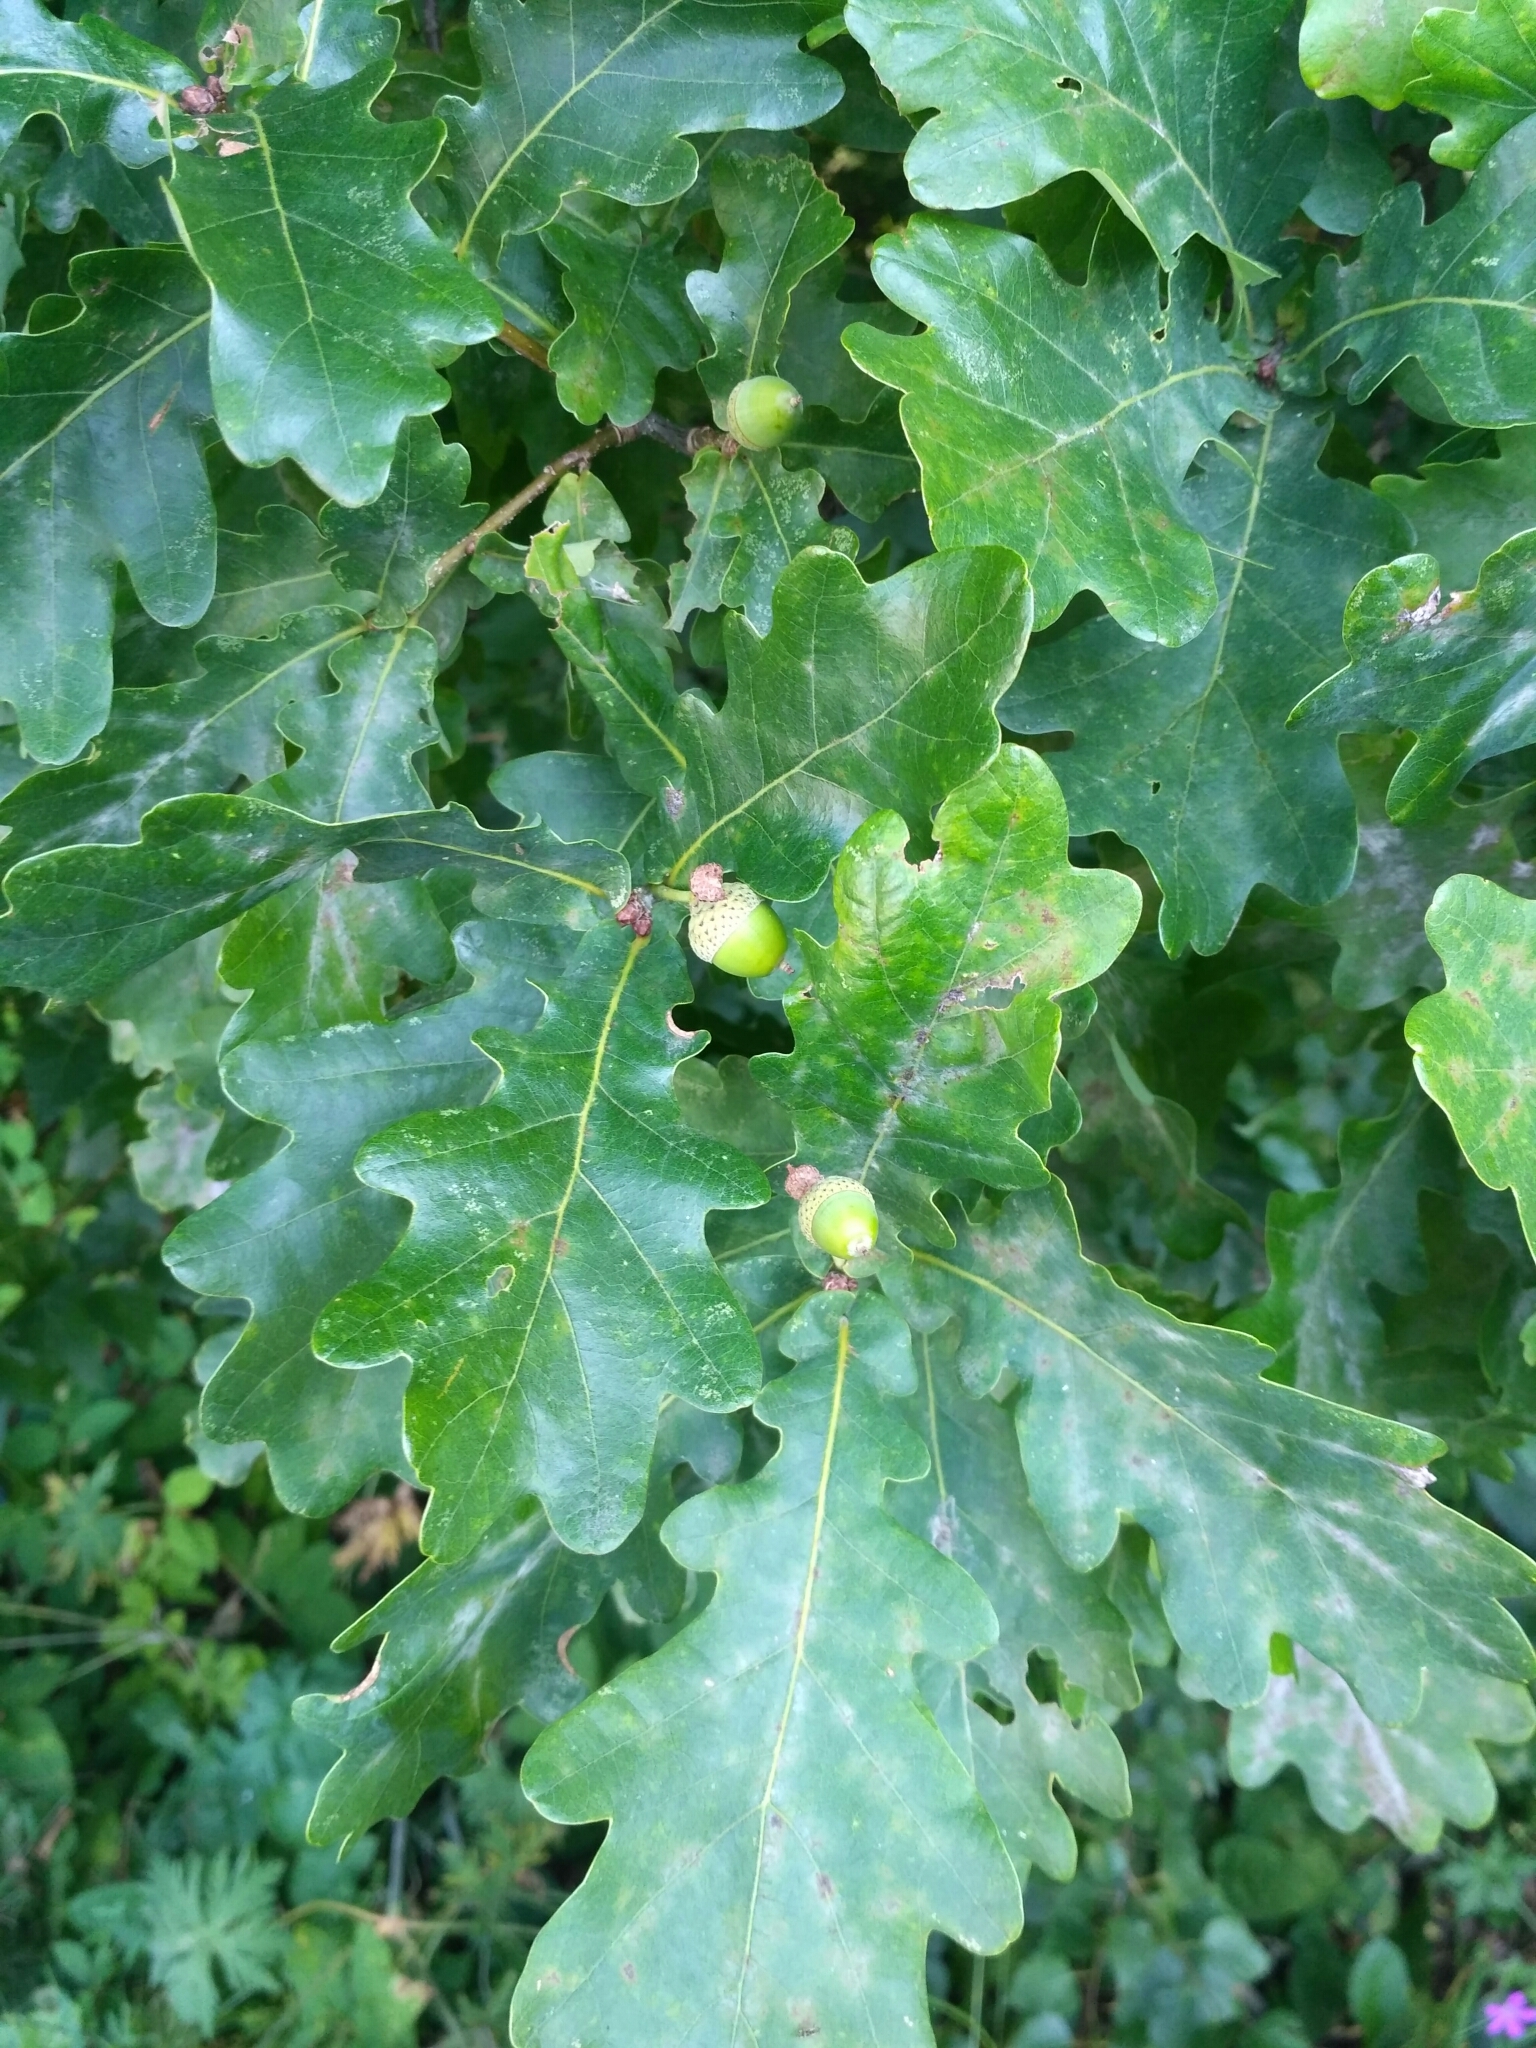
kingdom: Plantae
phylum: Tracheophyta
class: Magnoliopsida
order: Fagales
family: Fagaceae
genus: Quercus
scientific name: Quercus robur
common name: Pedunculate oak
